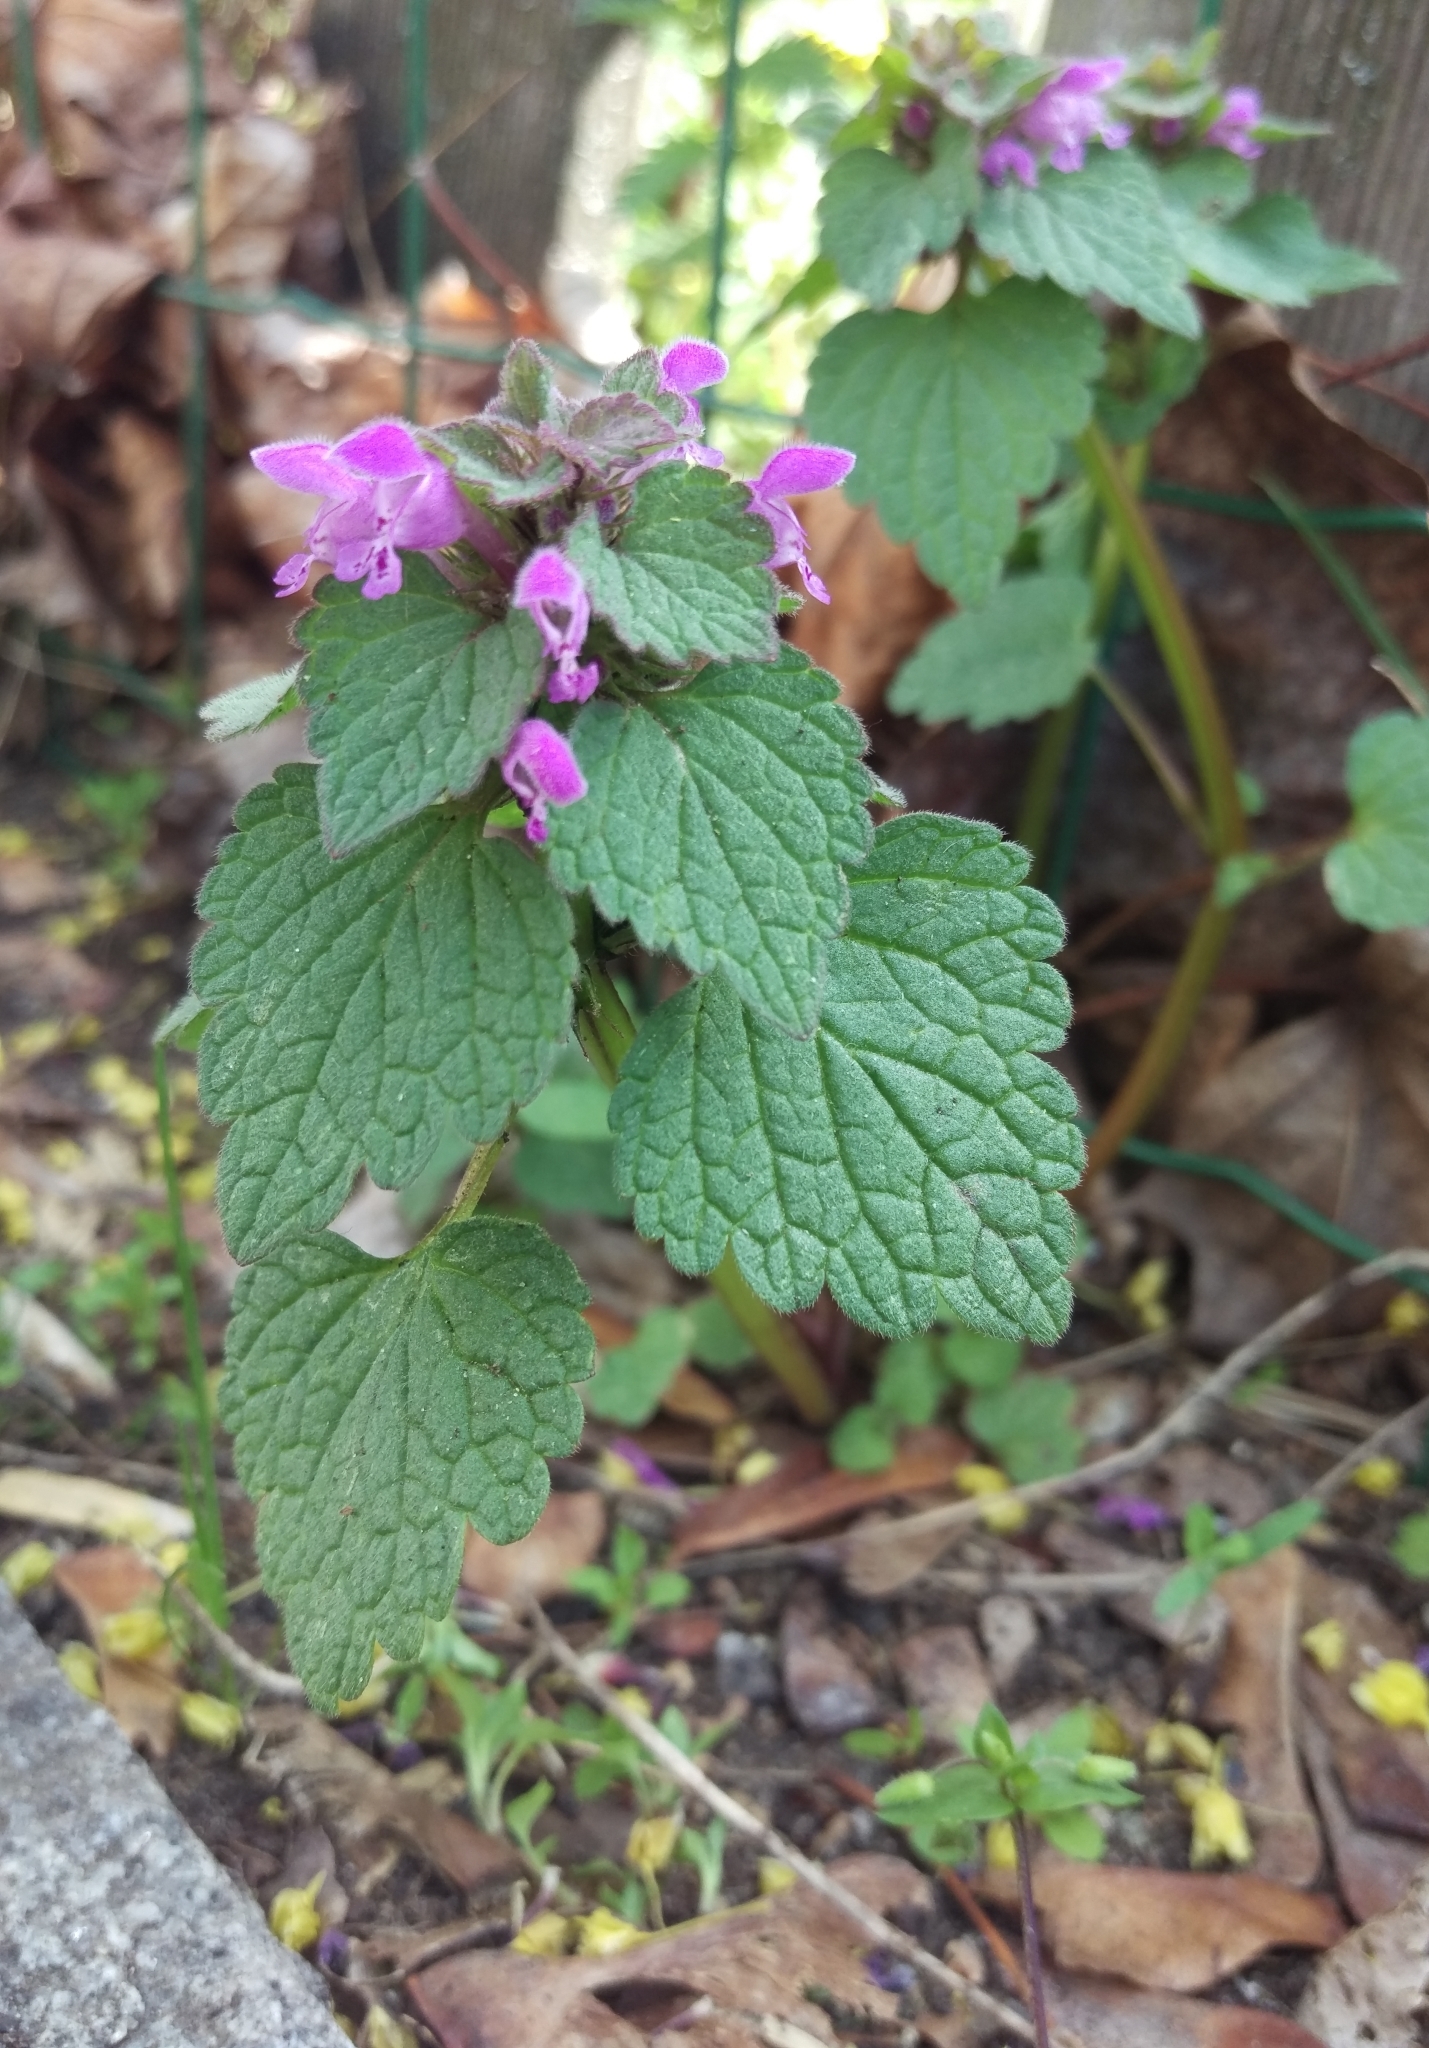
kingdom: Plantae
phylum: Tracheophyta
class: Magnoliopsida
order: Lamiales
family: Lamiaceae
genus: Lamium
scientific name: Lamium purpureum
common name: Red dead-nettle
